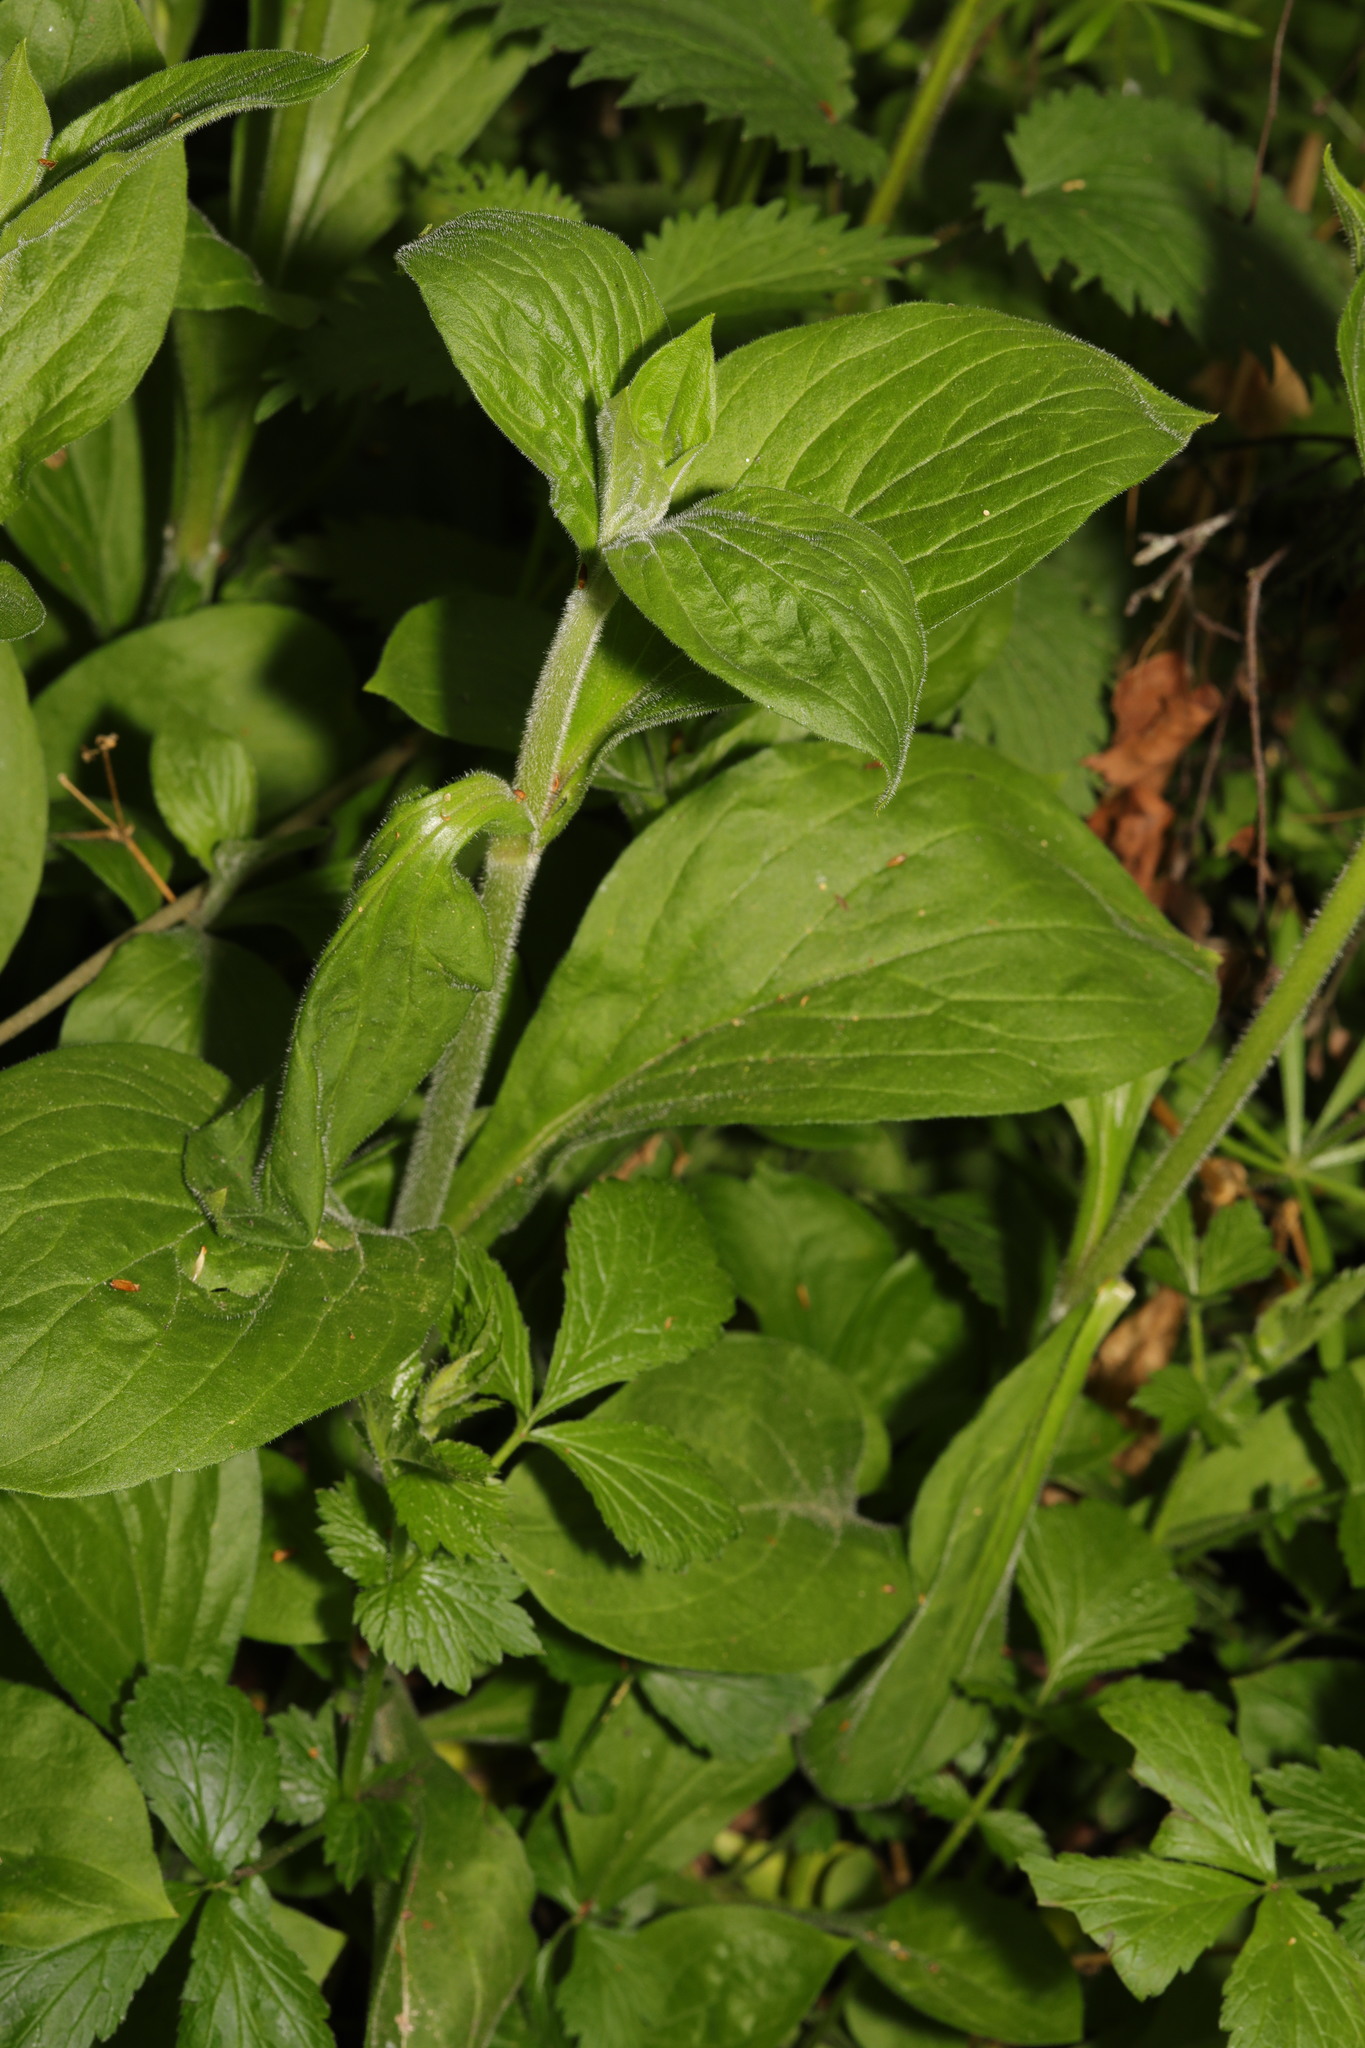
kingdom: Plantae
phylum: Tracheophyta
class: Magnoliopsida
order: Caryophyllales
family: Caryophyllaceae
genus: Silene
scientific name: Silene dioica
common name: Red campion
